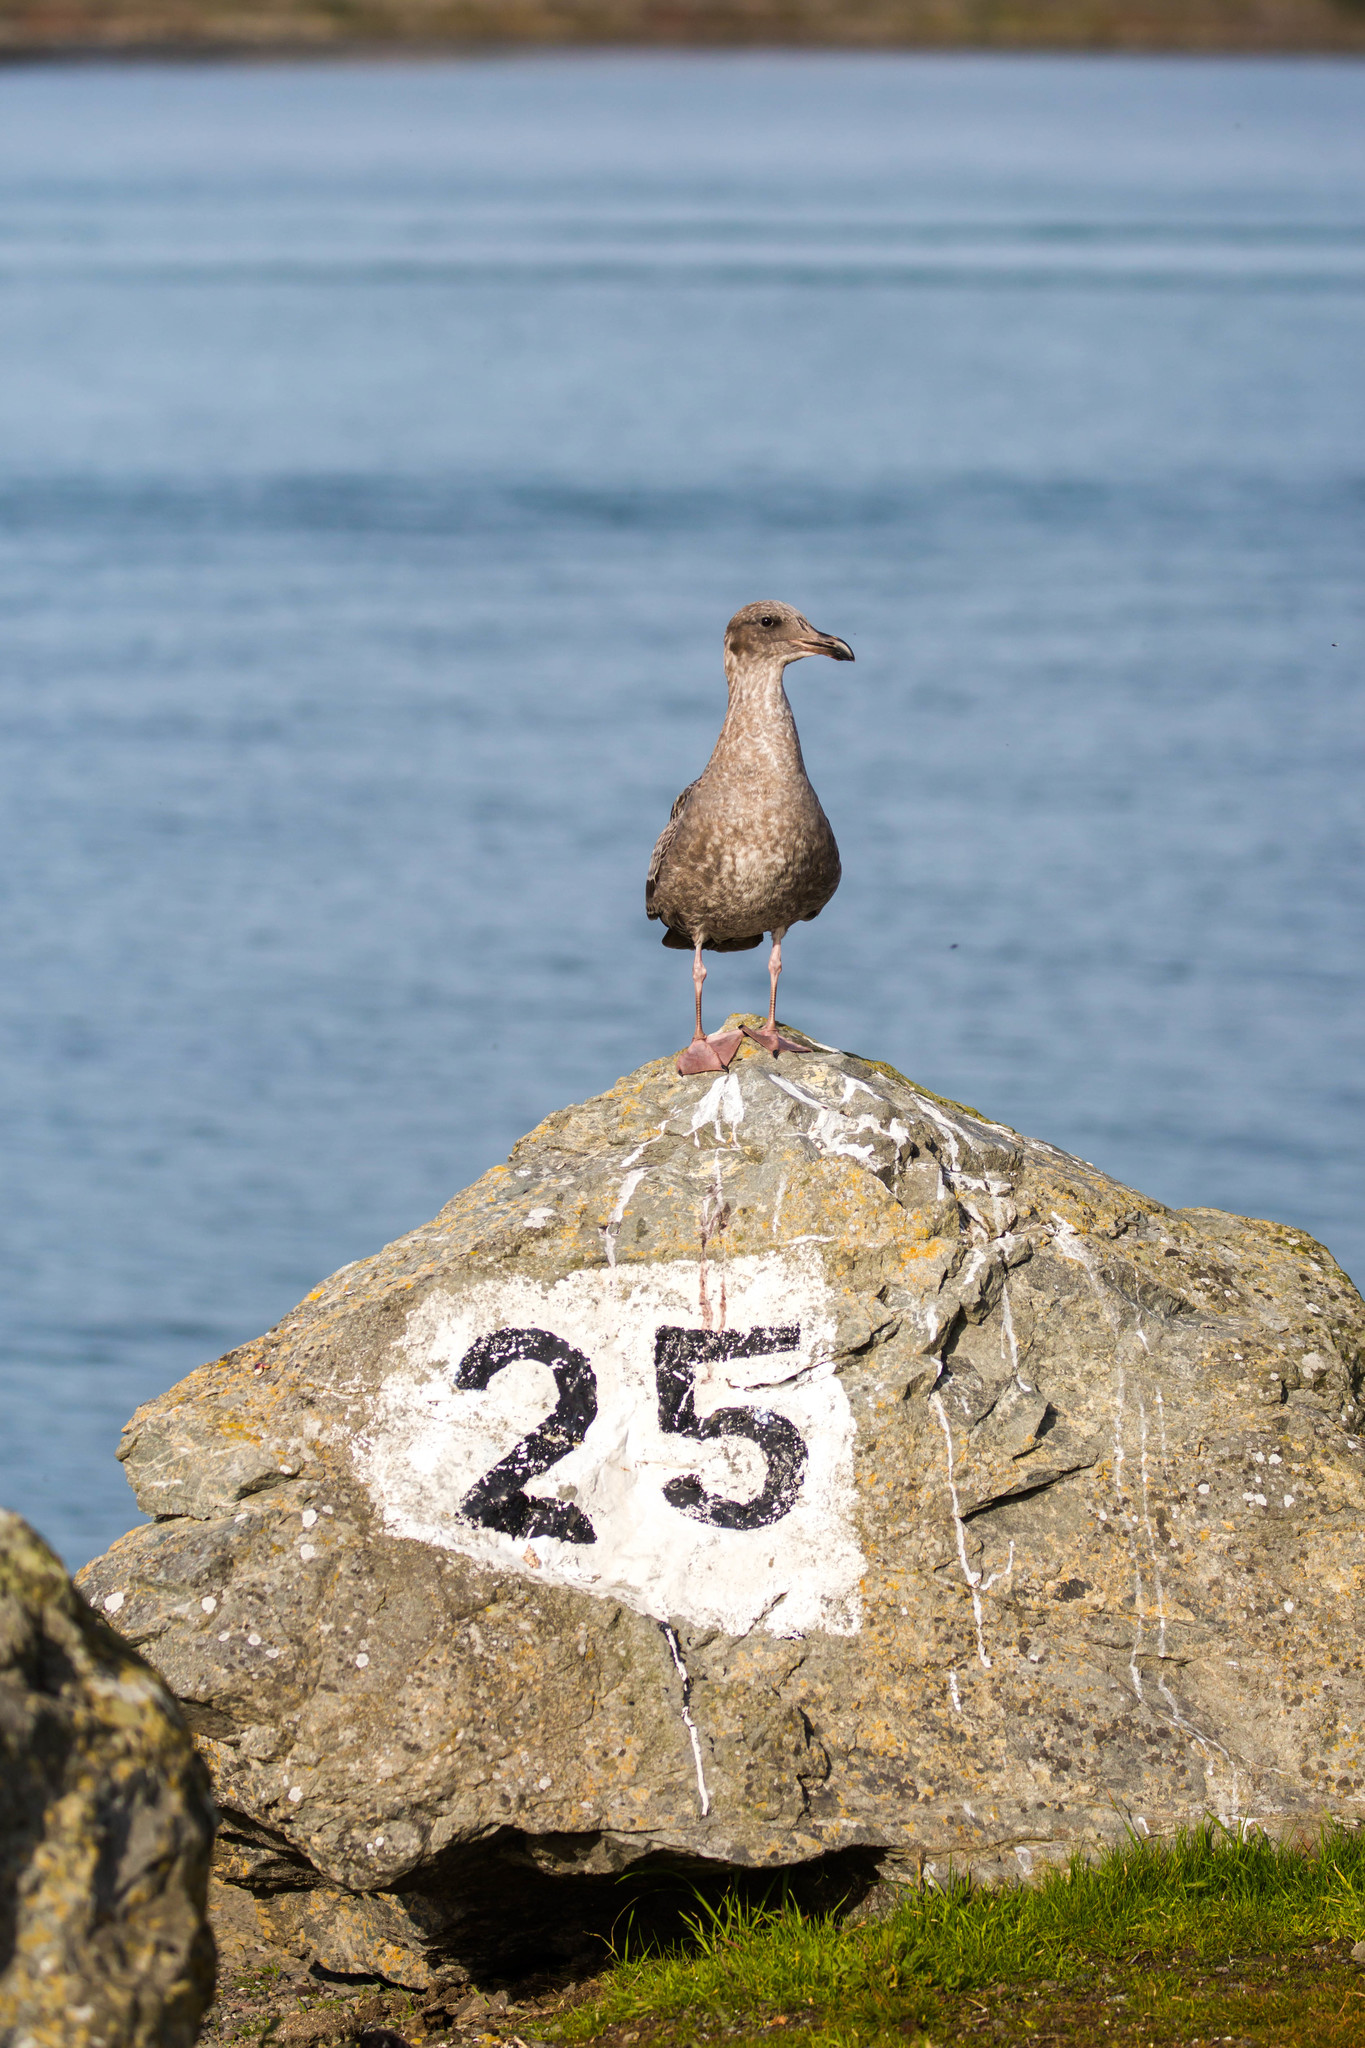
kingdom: Animalia
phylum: Chordata
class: Aves
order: Charadriiformes
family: Laridae
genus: Larus
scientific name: Larus occidentalis
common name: Western gull
